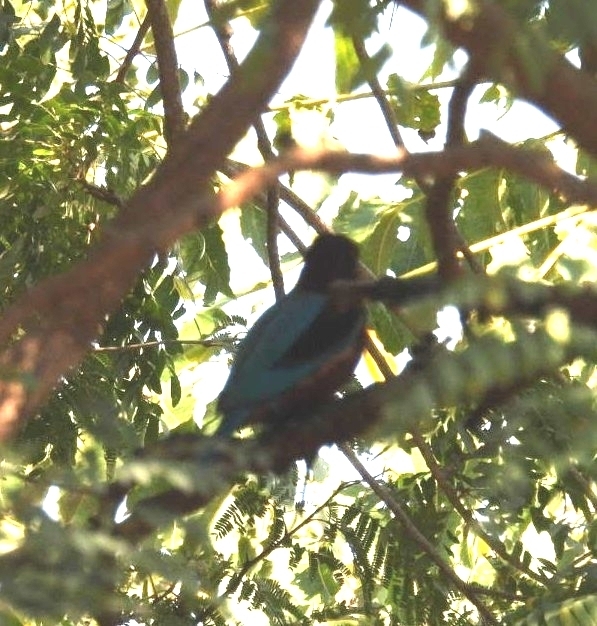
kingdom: Animalia
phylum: Chordata
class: Aves
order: Coraciiformes
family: Alcedinidae
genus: Halcyon
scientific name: Halcyon smyrnensis
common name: White-throated kingfisher
